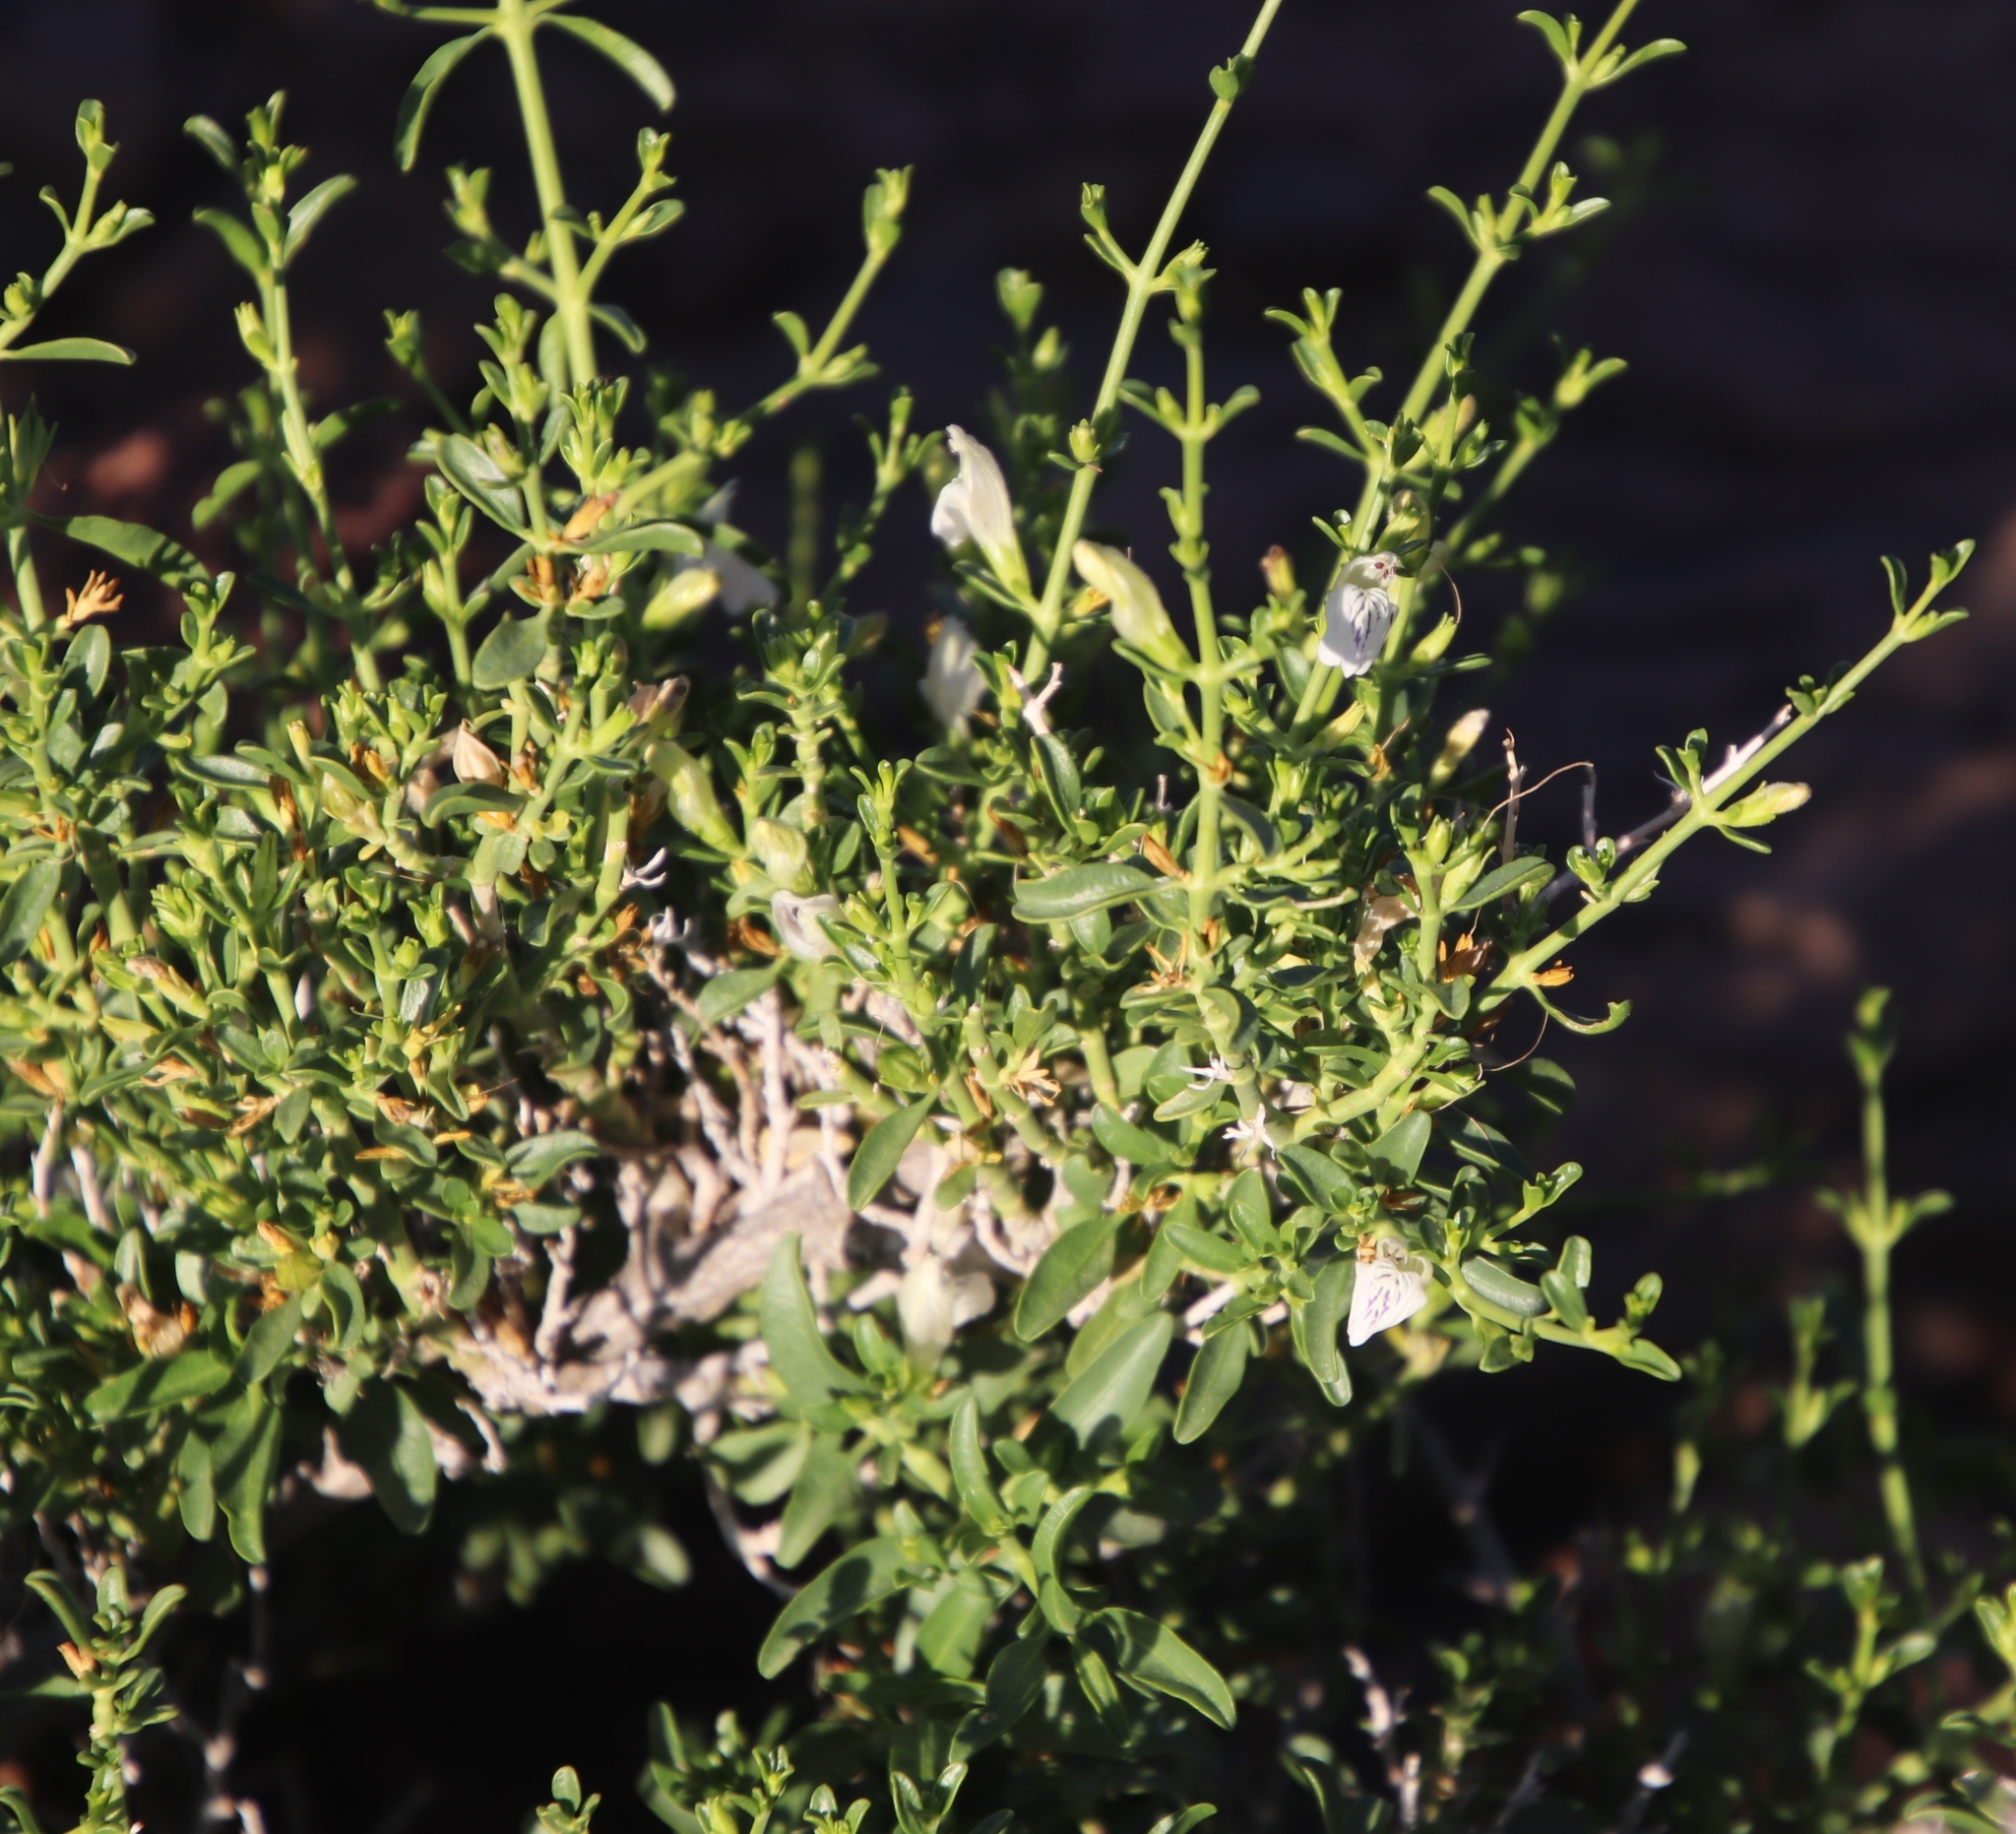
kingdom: Plantae
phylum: Tracheophyta
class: Magnoliopsida
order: Lamiales
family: Acanthaceae
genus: Pogonospermum
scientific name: Pogonospermum
